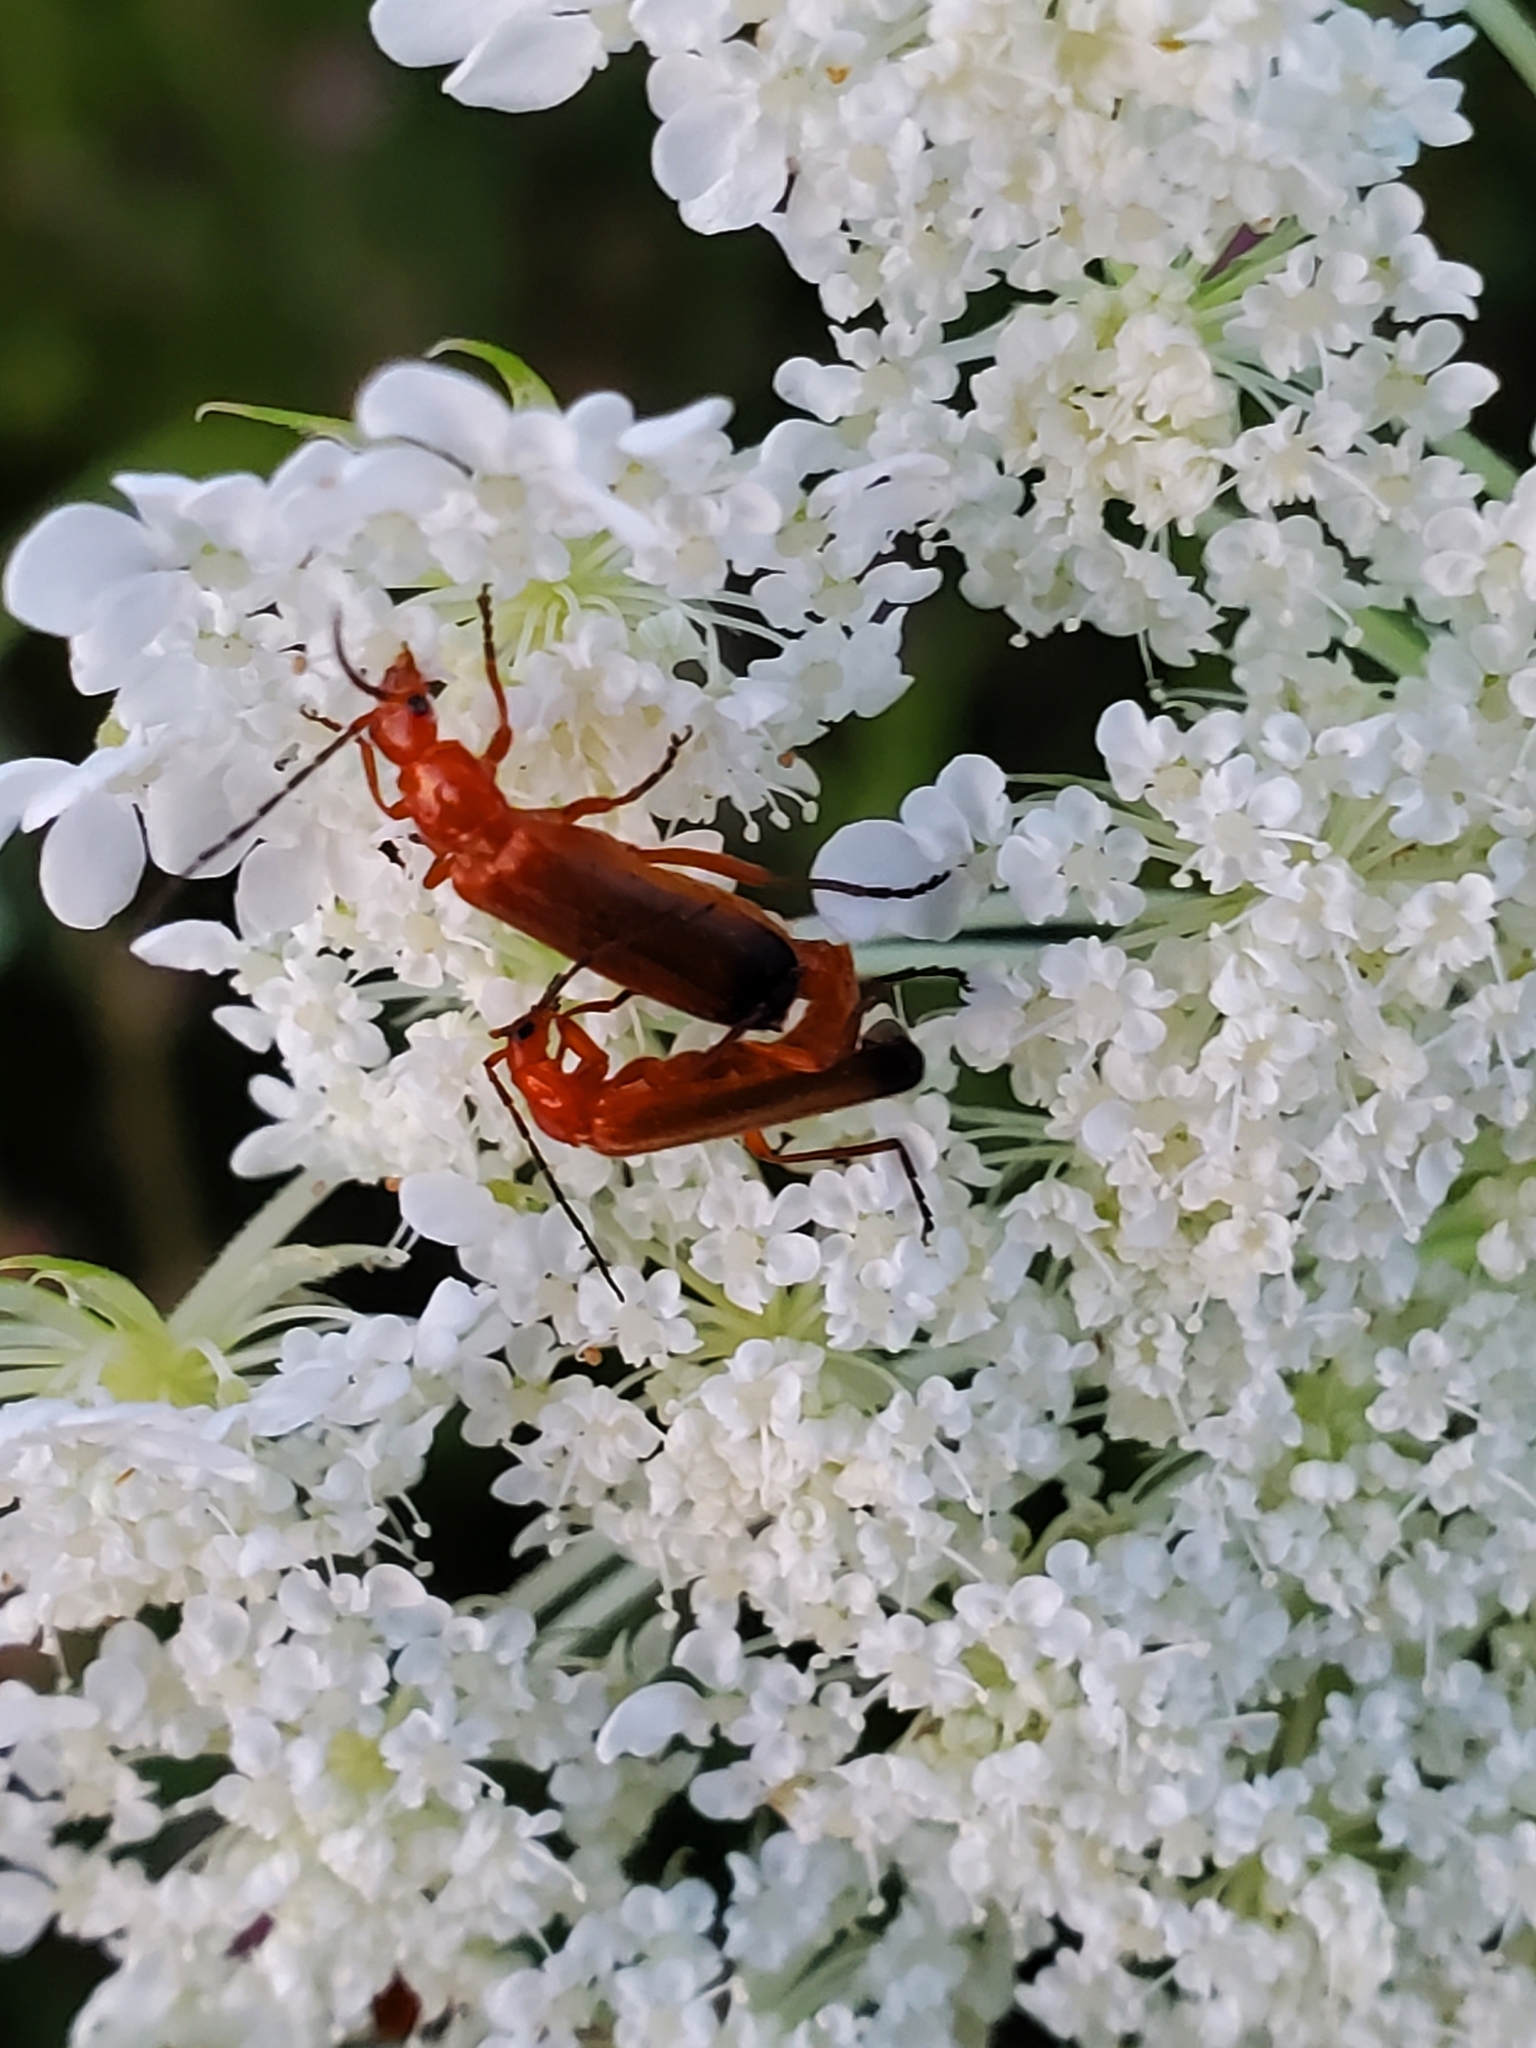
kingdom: Animalia
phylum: Arthropoda
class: Insecta
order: Coleoptera
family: Cantharidae
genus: Rhagonycha
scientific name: Rhagonycha fulva
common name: Common red soldier beetle
